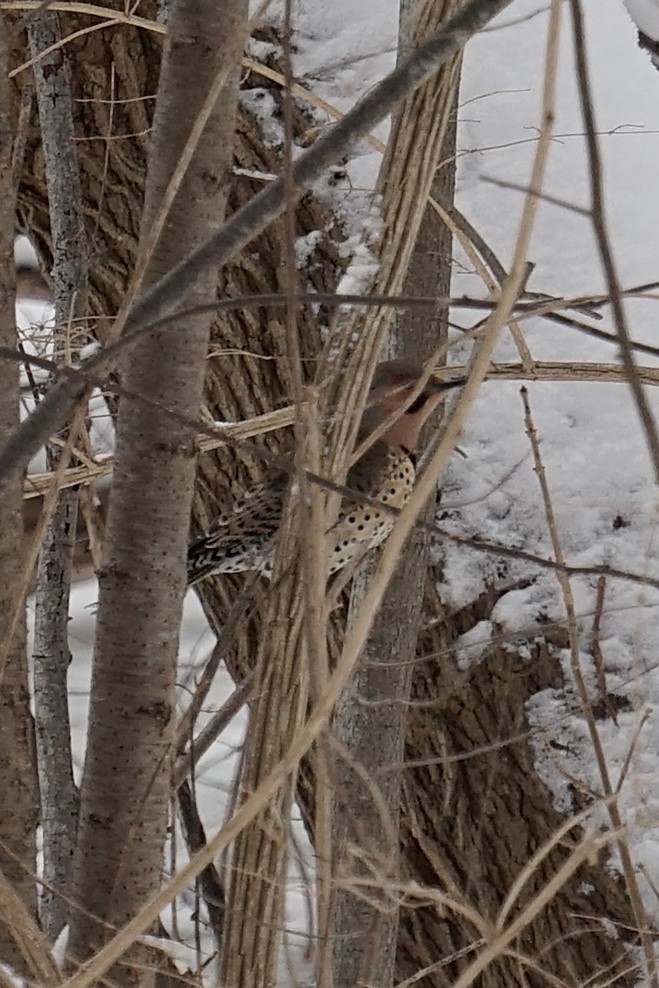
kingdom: Animalia
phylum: Chordata
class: Aves
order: Piciformes
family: Picidae
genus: Colaptes
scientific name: Colaptes auratus
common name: Northern flicker
